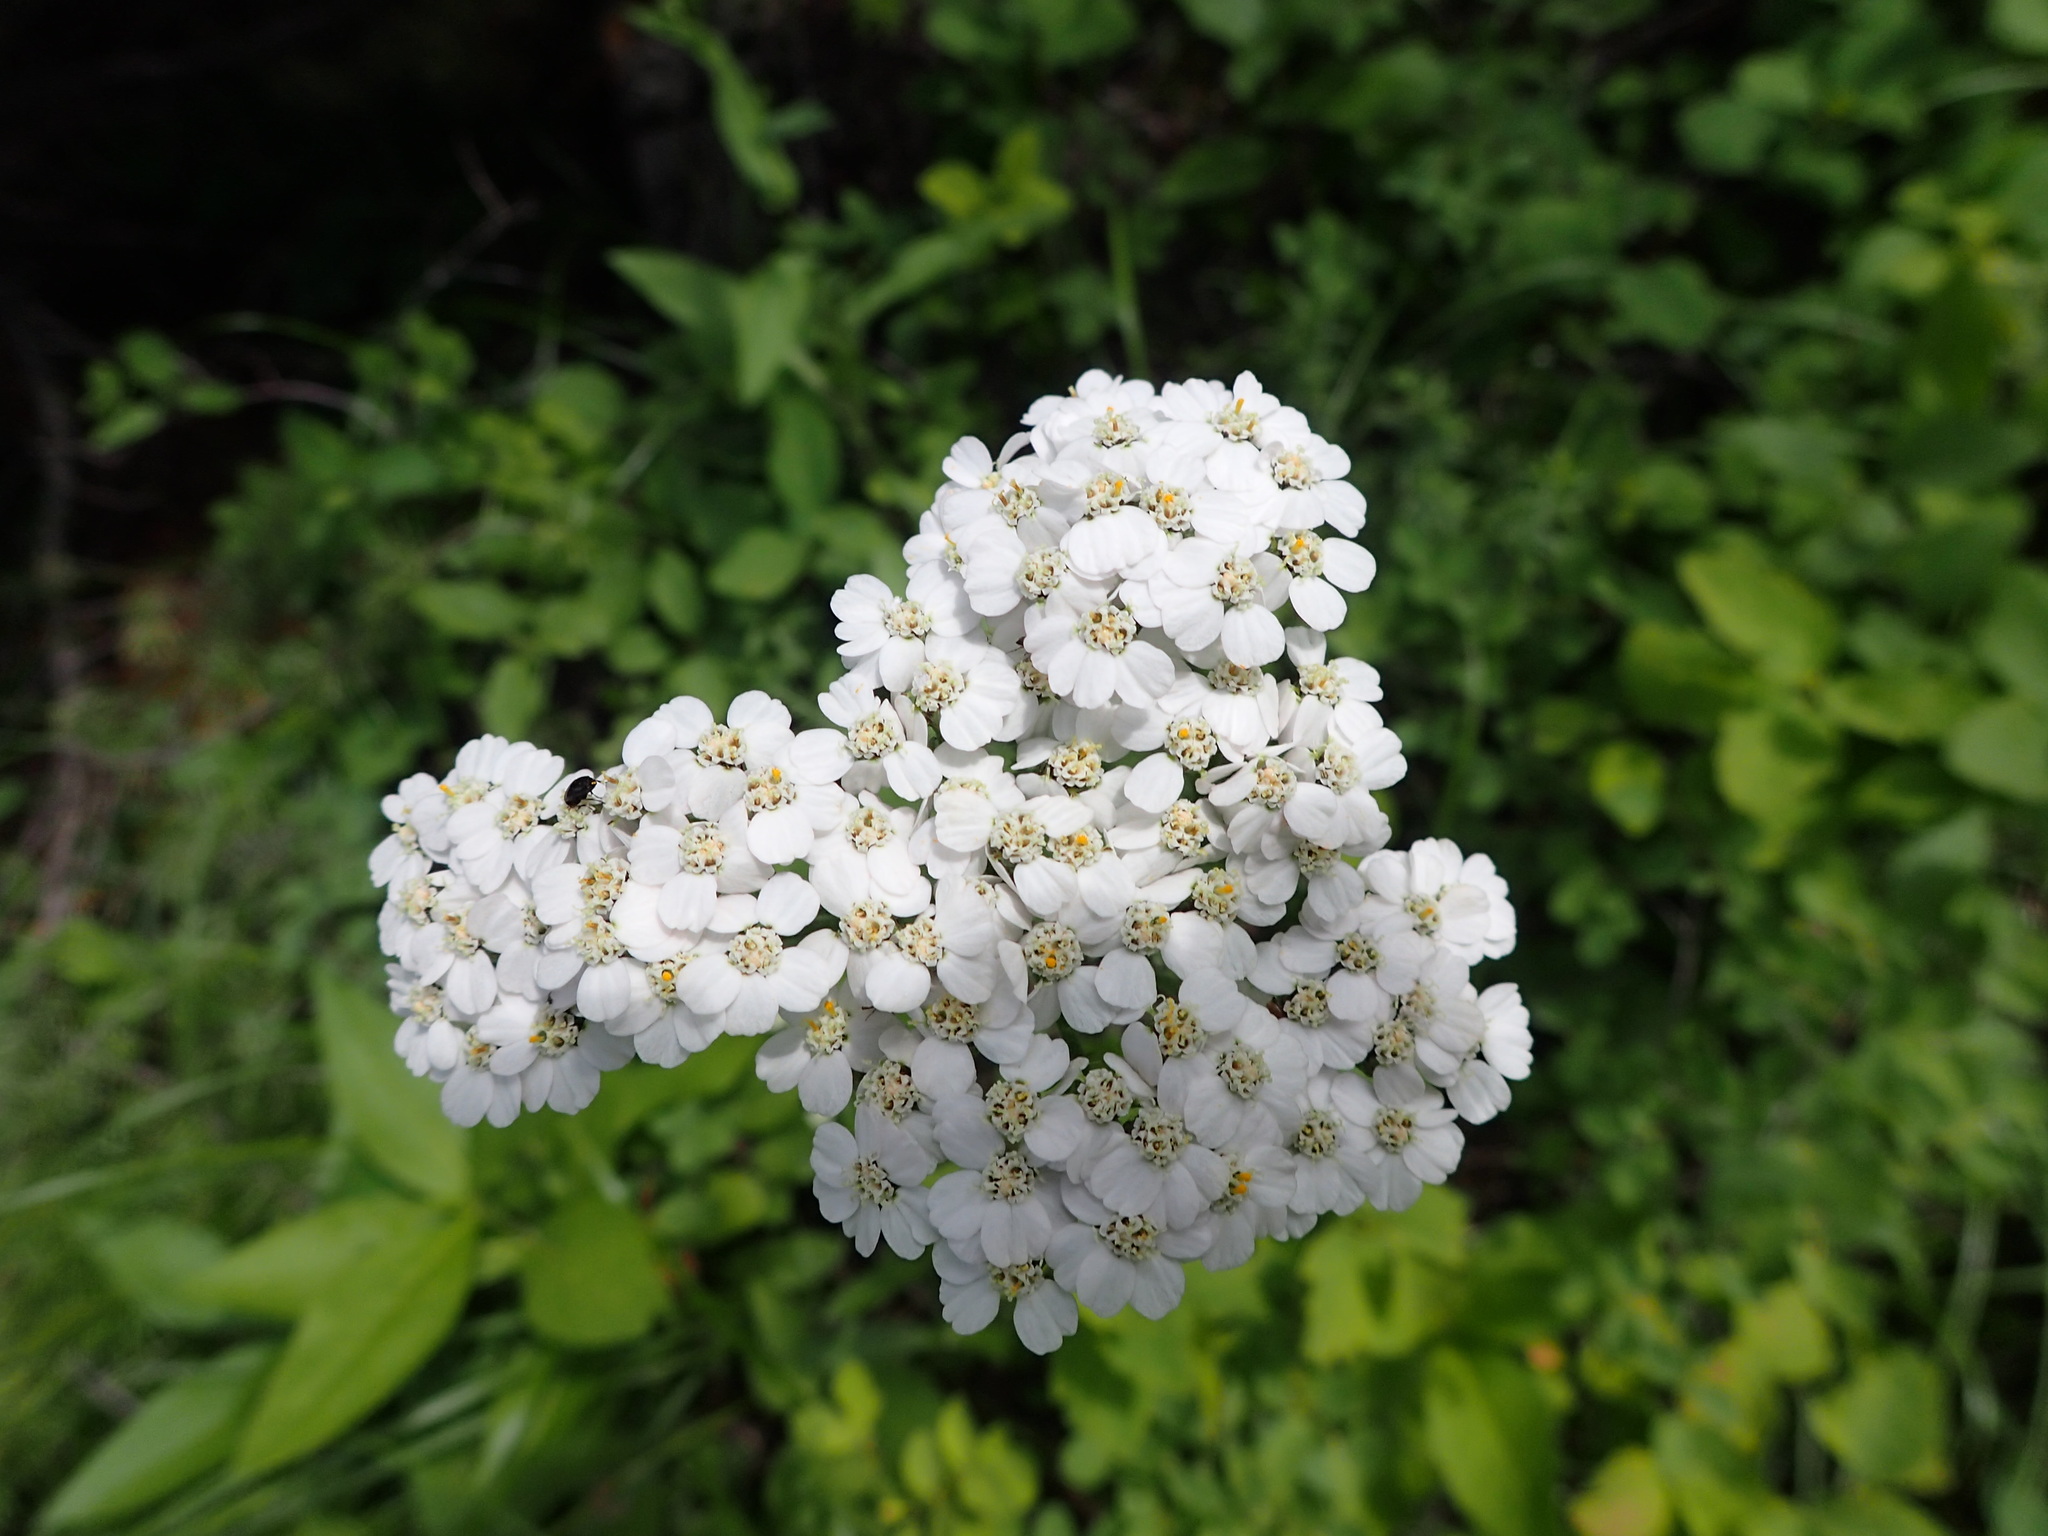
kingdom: Plantae
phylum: Tracheophyta
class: Magnoliopsida
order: Asterales
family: Asteraceae
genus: Achillea
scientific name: Achillea millefolium
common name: Yarrow
